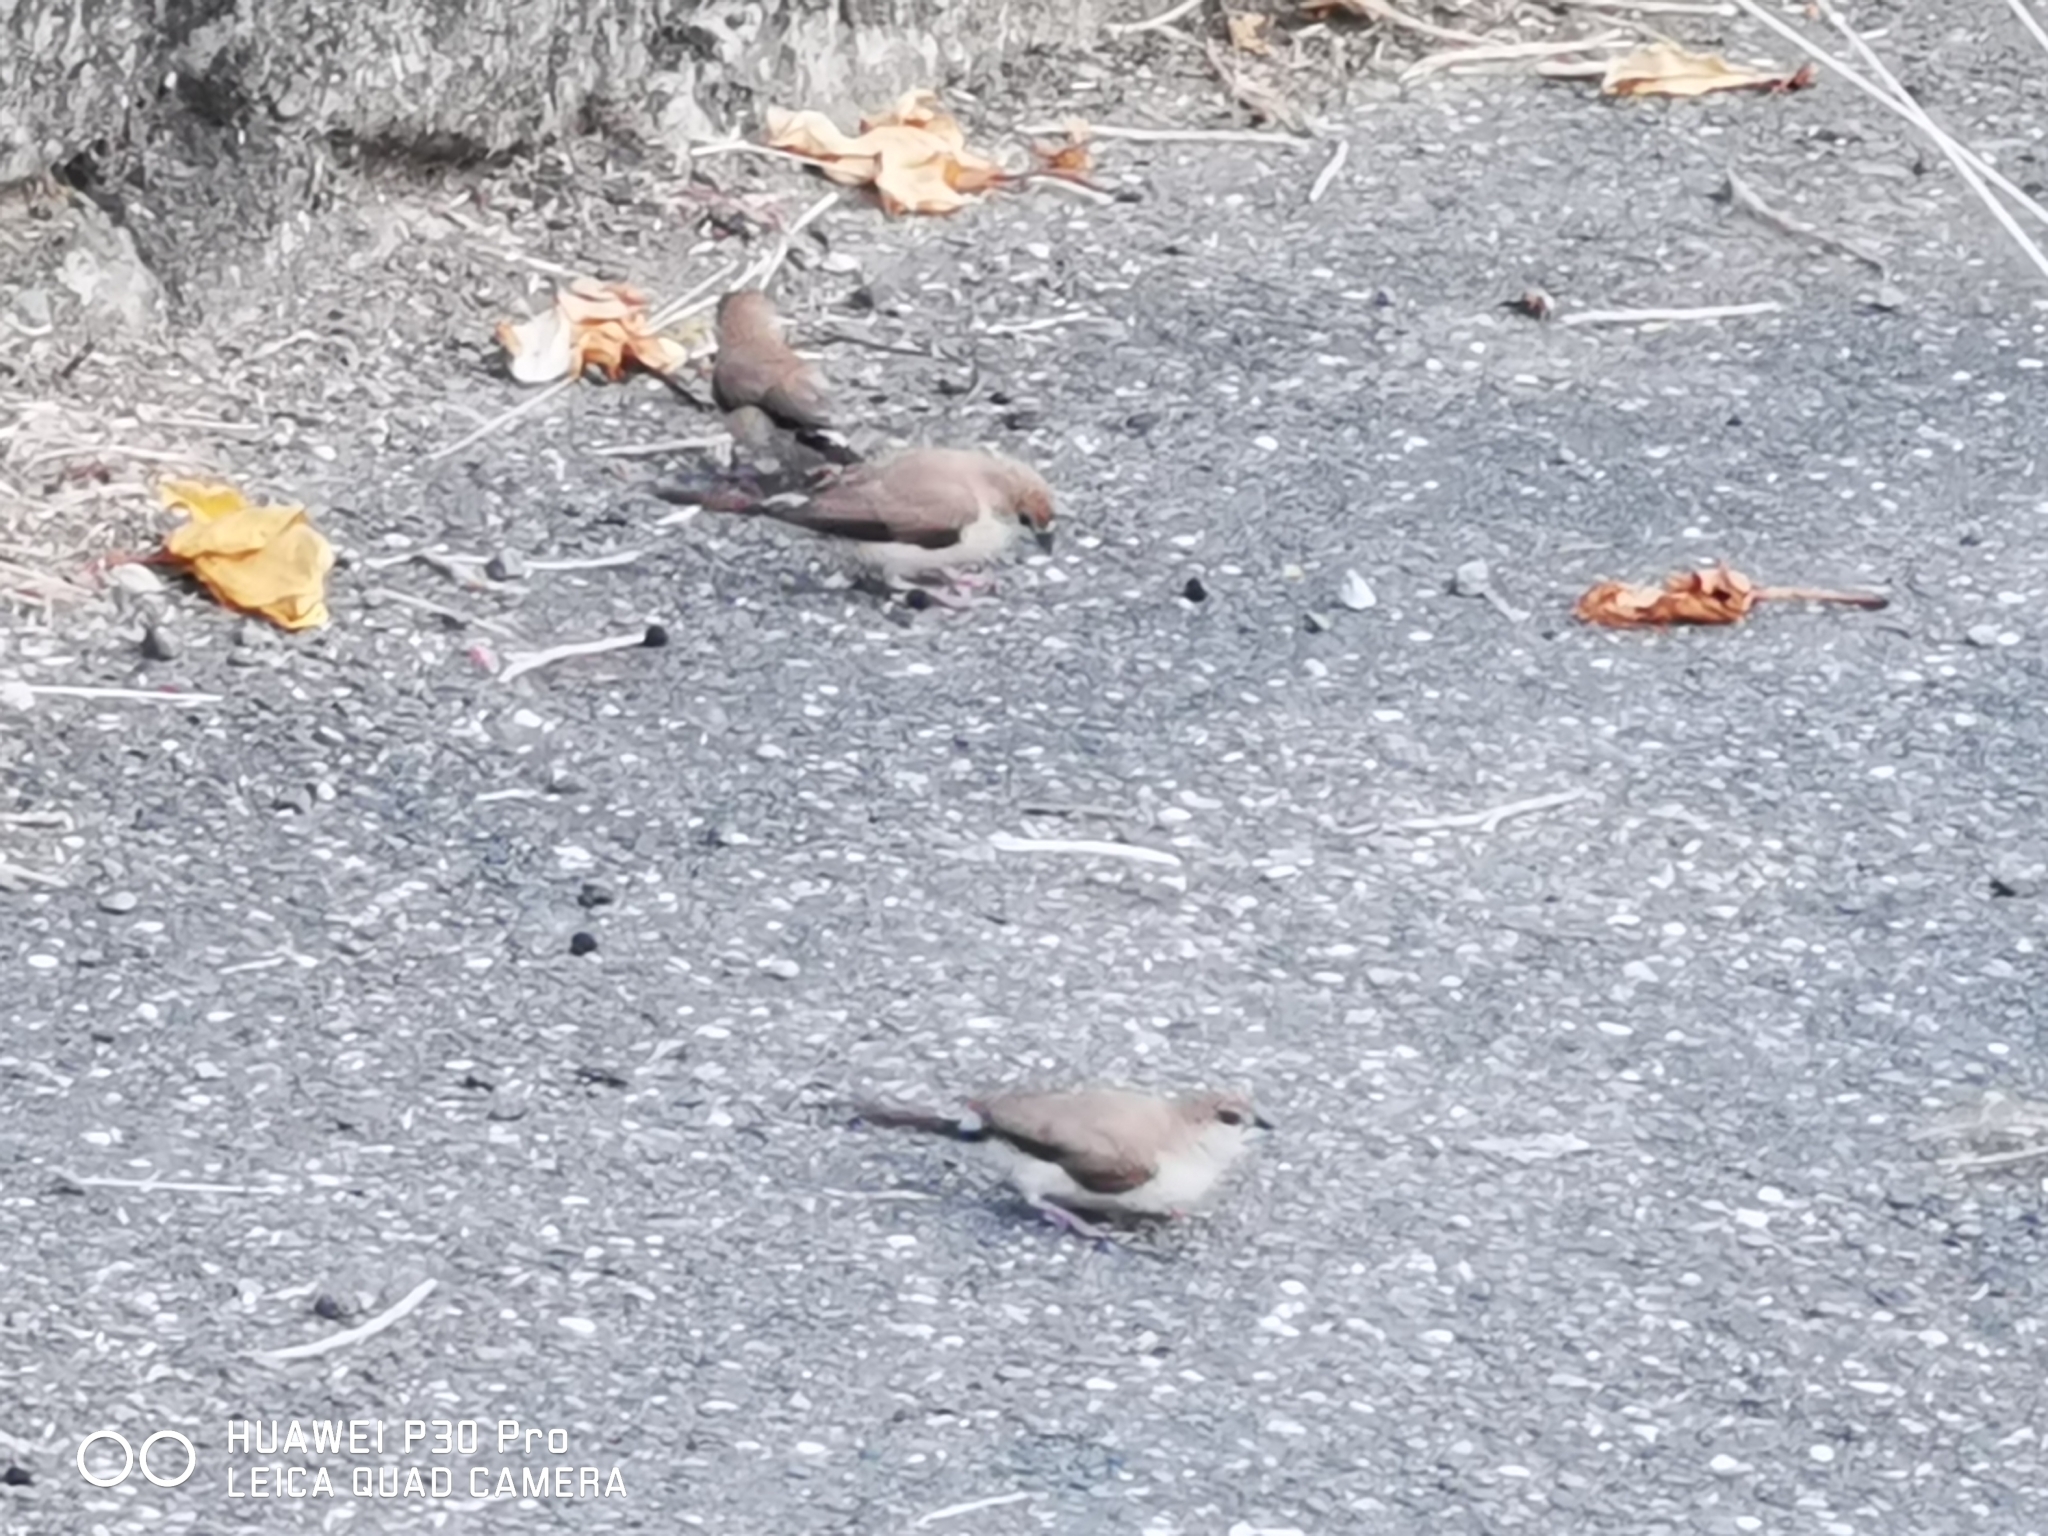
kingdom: Animalia
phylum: Chordata
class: Aves
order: Passeriformes
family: Estrildidae
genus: Euodice
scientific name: Euodice malabarica
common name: Indian silverbill
